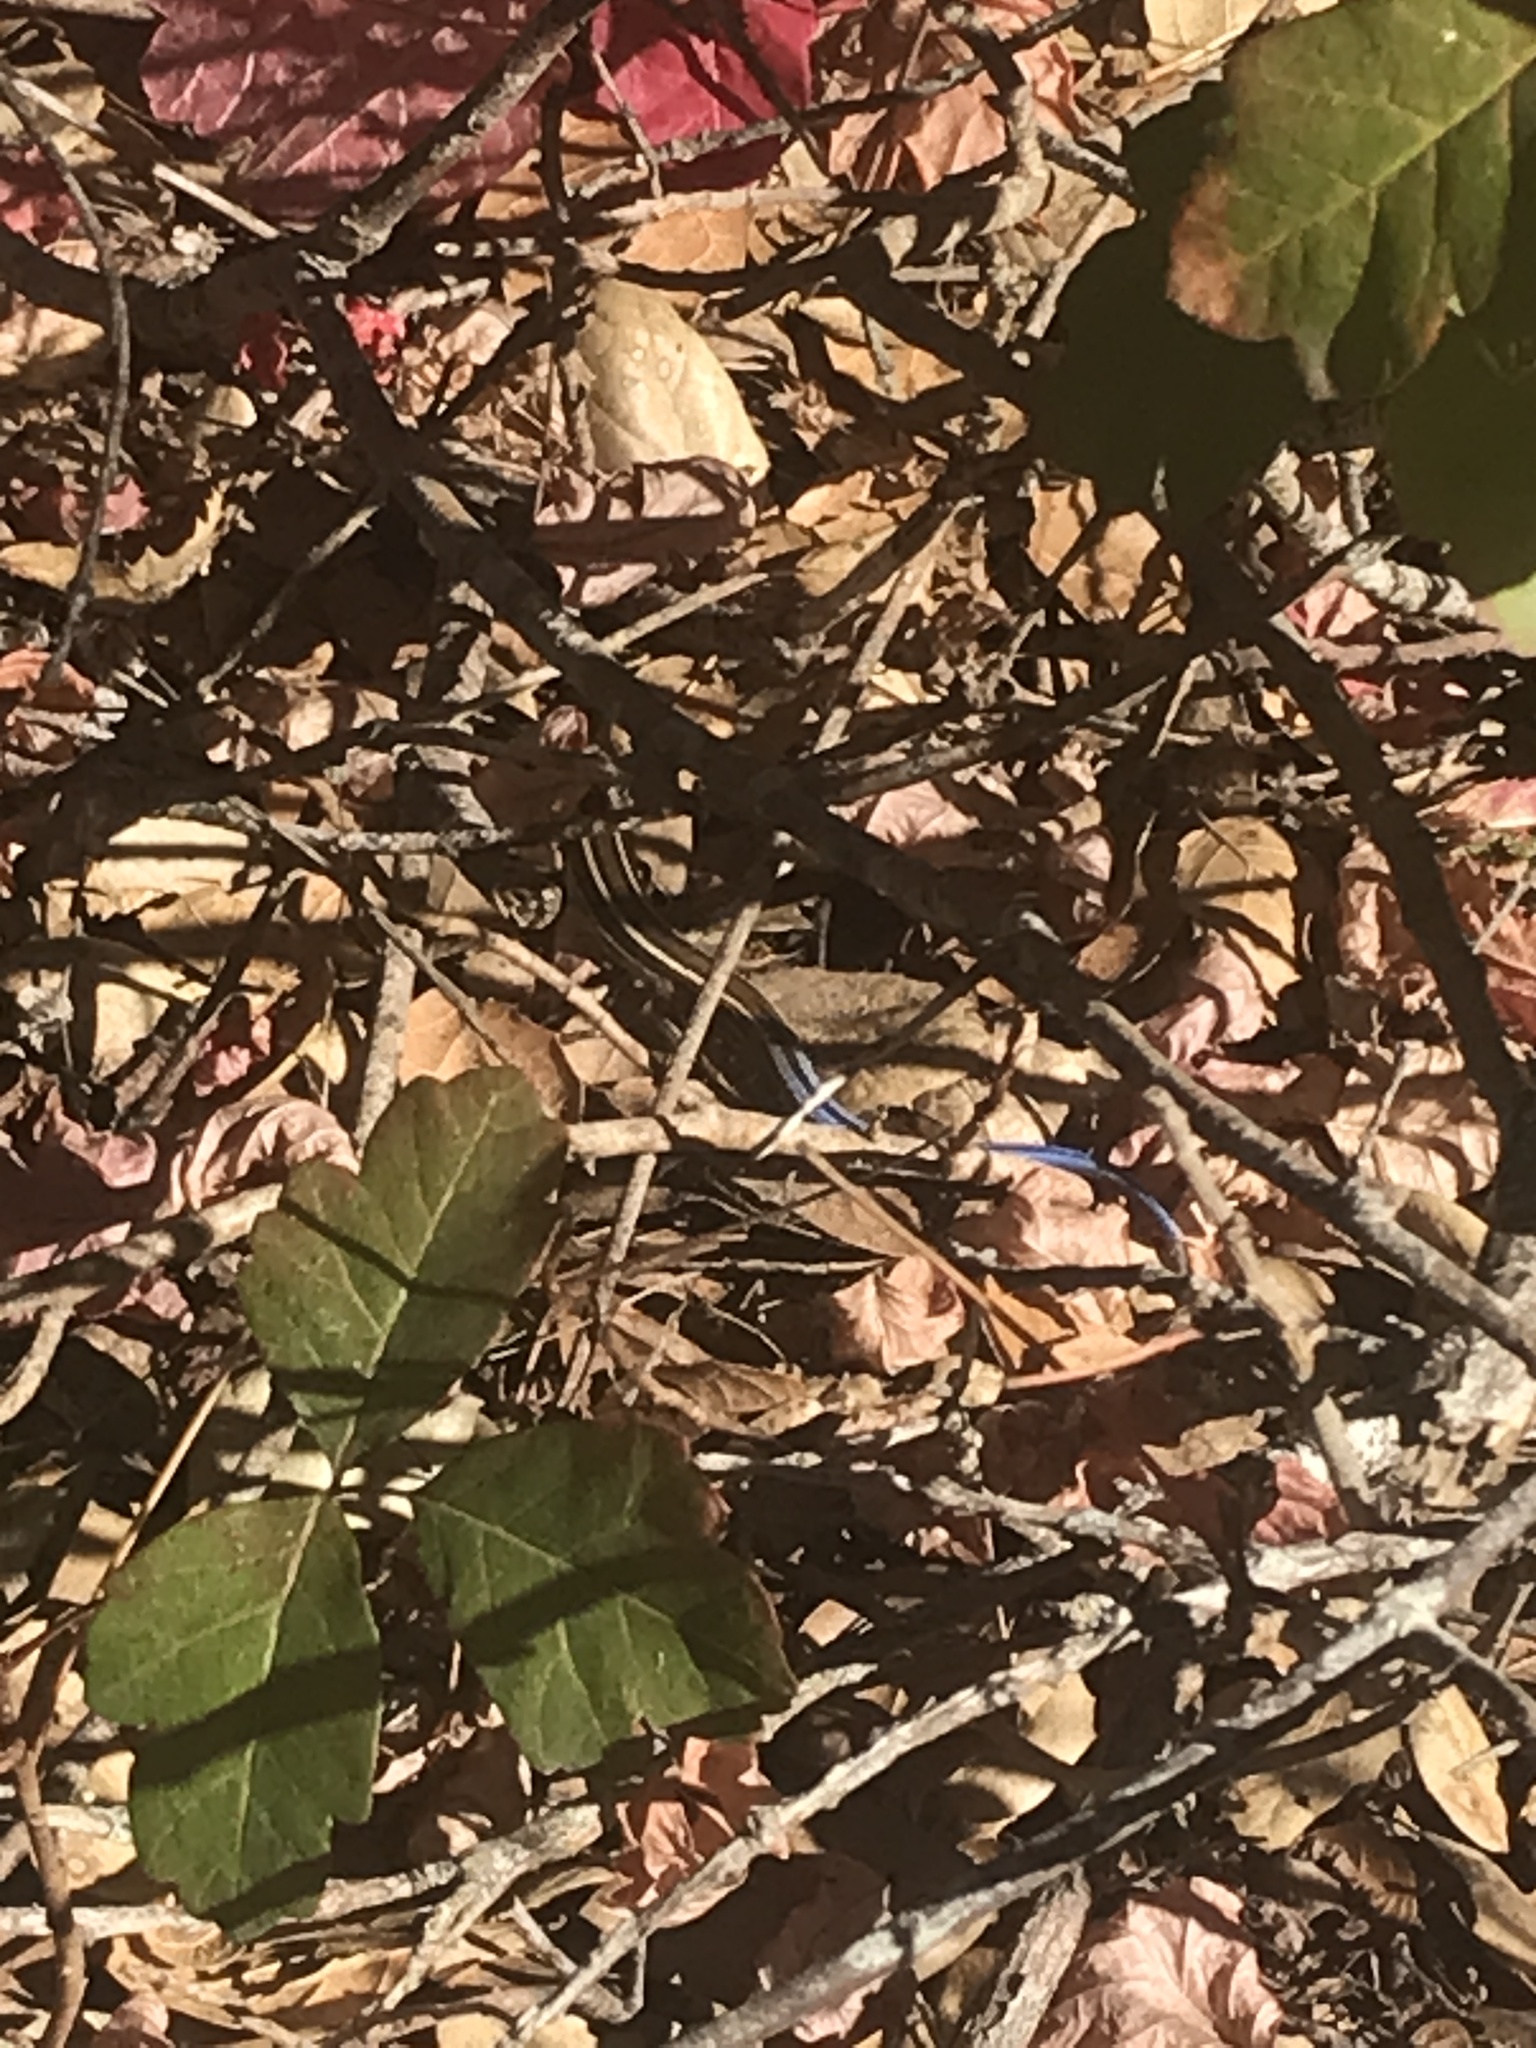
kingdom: Animalia
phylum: Chordata
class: Squamata
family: Scincidae
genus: Plestiodon
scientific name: Plestiodon skiltonianus
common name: Coronado island skink [interparietalis]
